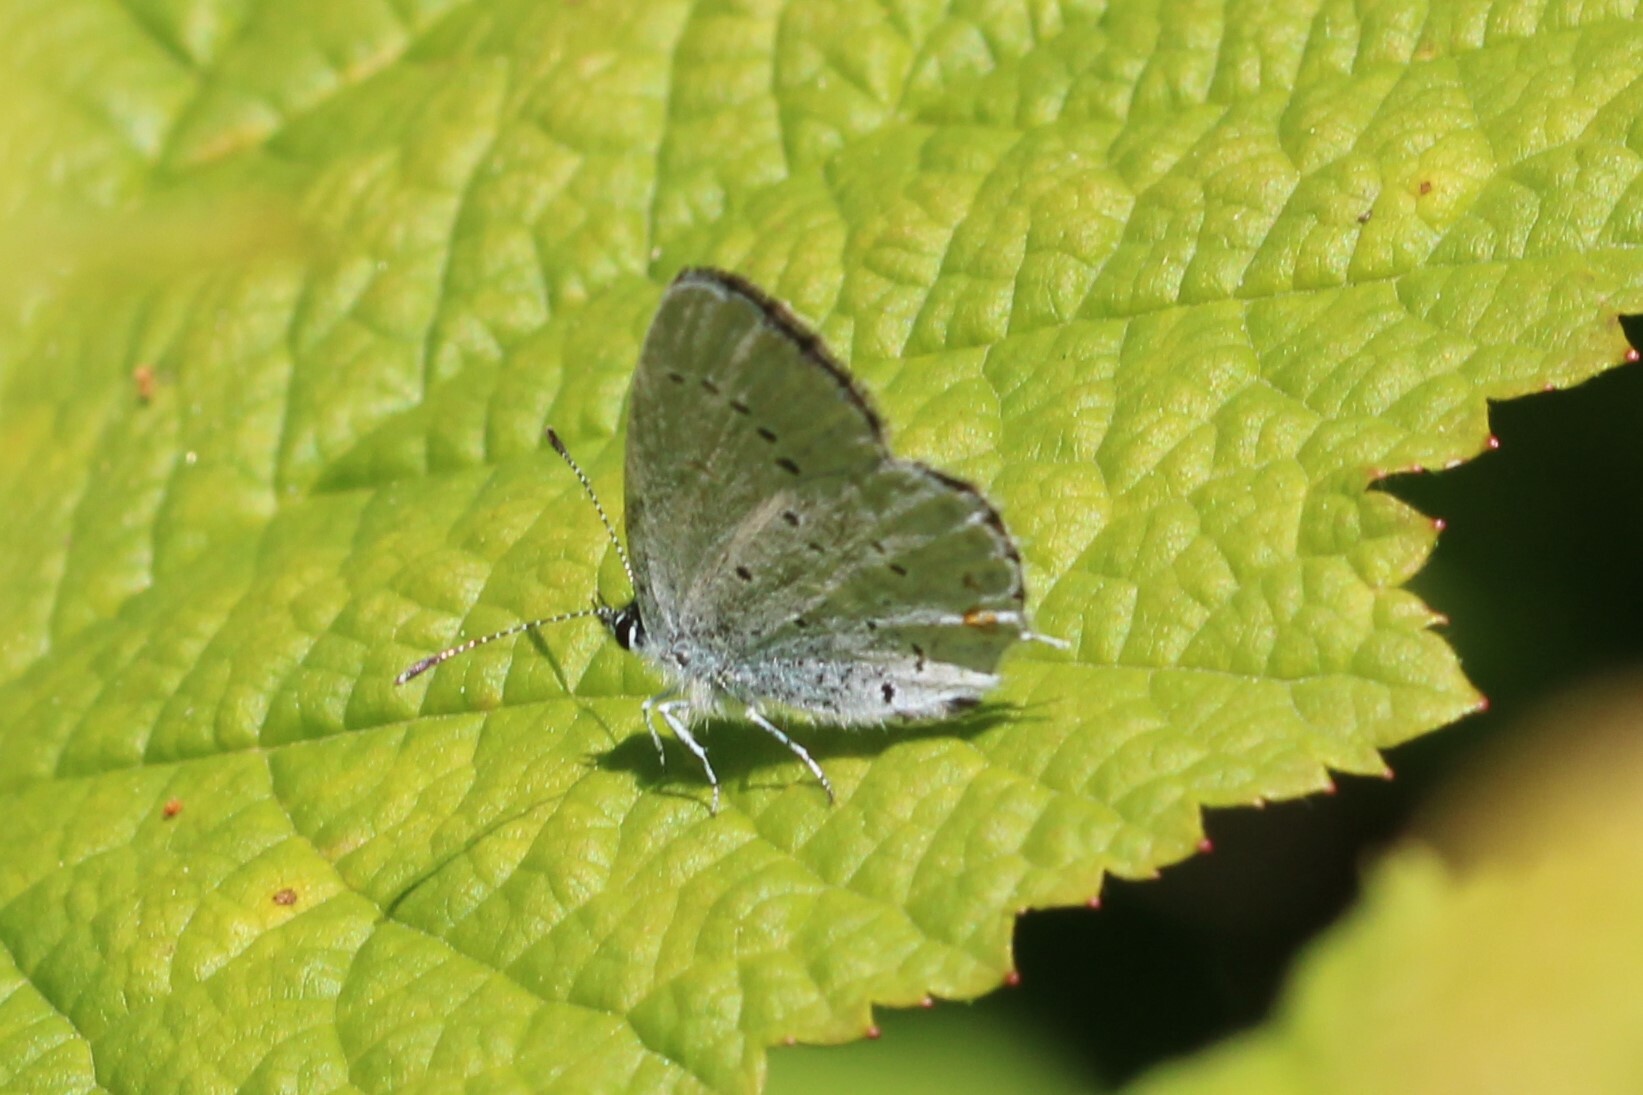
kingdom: Animalia
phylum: Arthropoda
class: Insecta
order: Lepidoptera
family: Lycaenidae
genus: Elkalyce
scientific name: Elkalyce amyntula
